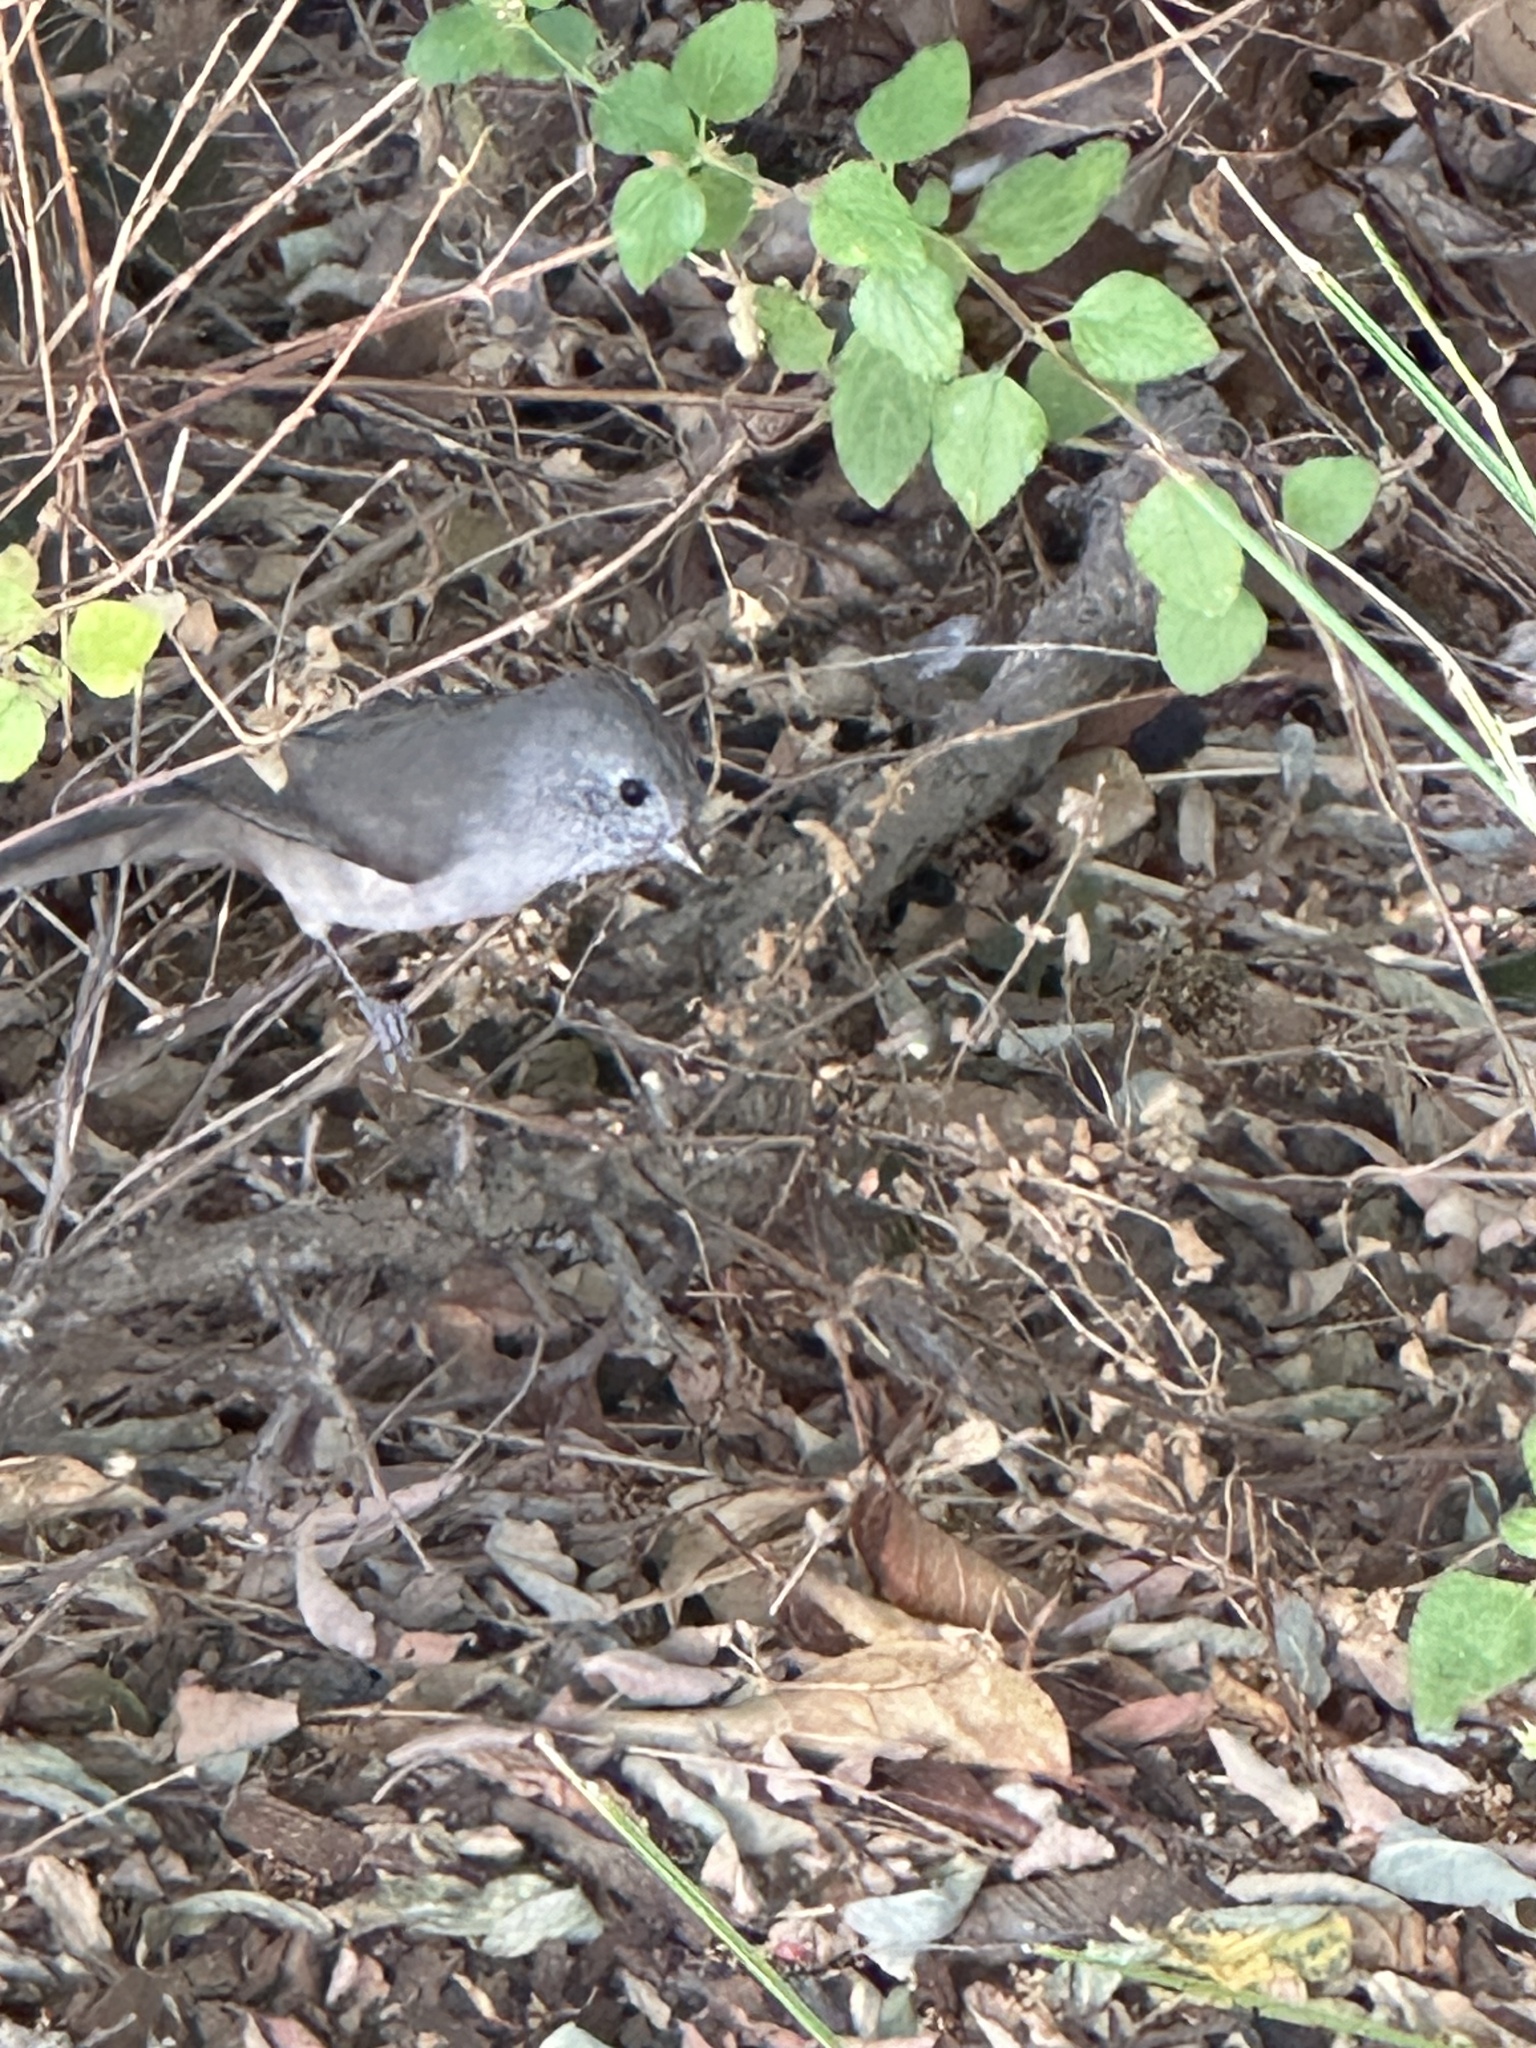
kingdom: Animalia
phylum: Chordata
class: Aves
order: Passeriformes
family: Paridae
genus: Baeolophus
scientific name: Baeolophus inornatus
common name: Oak titmouse
